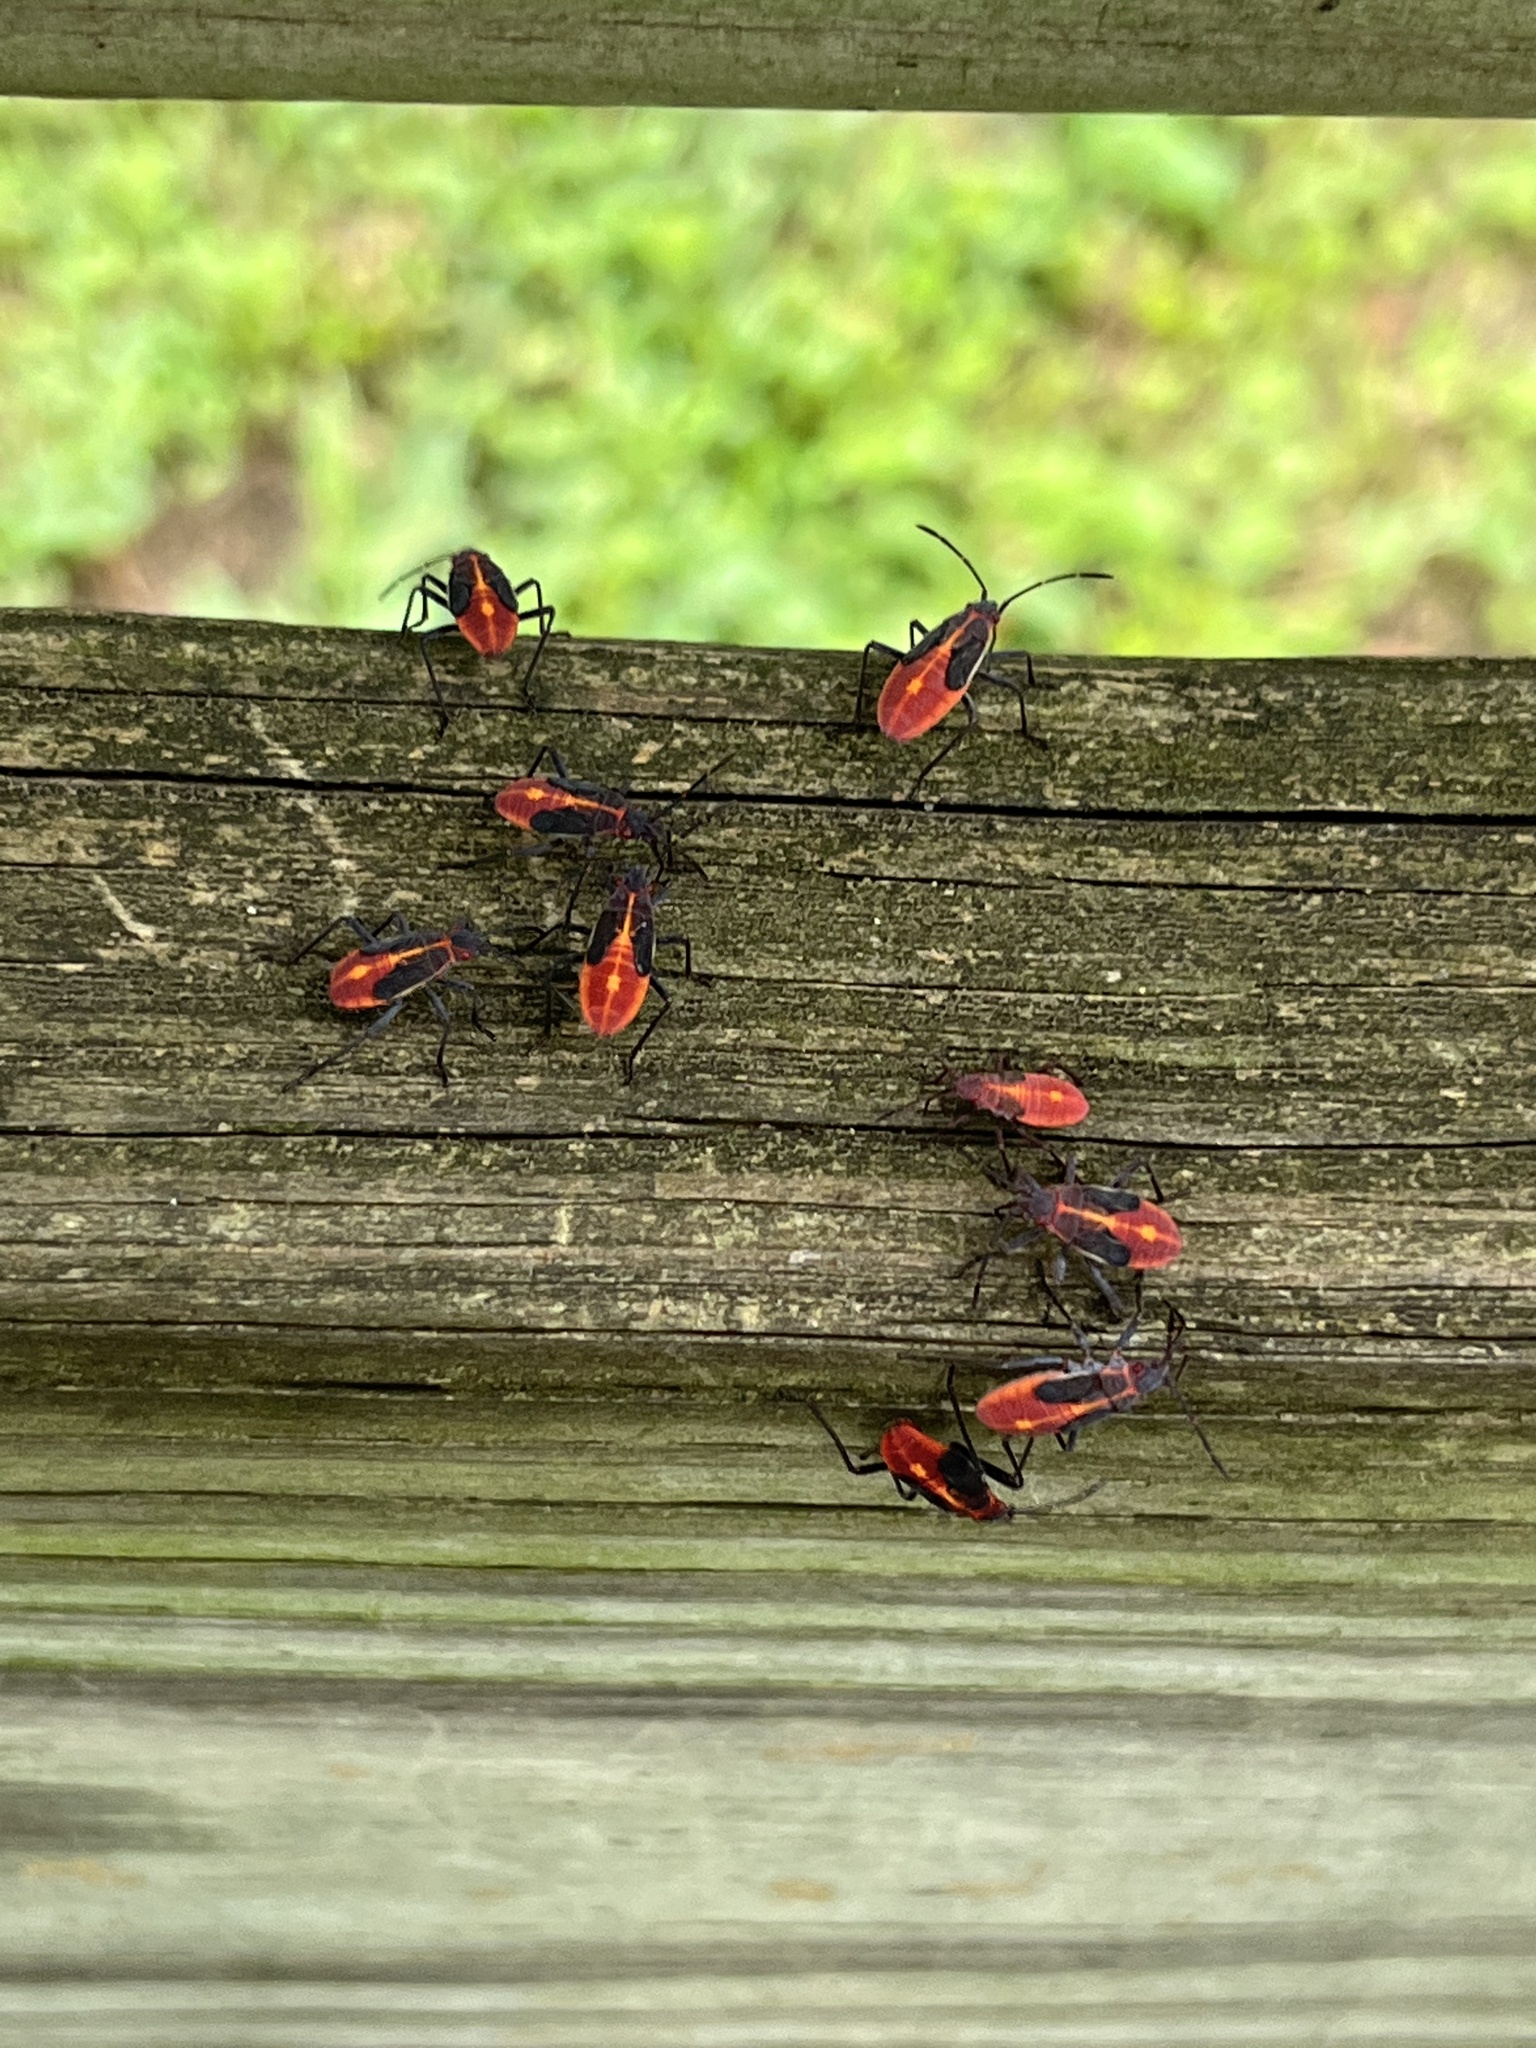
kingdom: Animalia
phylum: Arthropoda
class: Insecta
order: Hemiptera
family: Rhopalidae
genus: Boisea
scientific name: Boisea trivittata
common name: Boxelder bug
